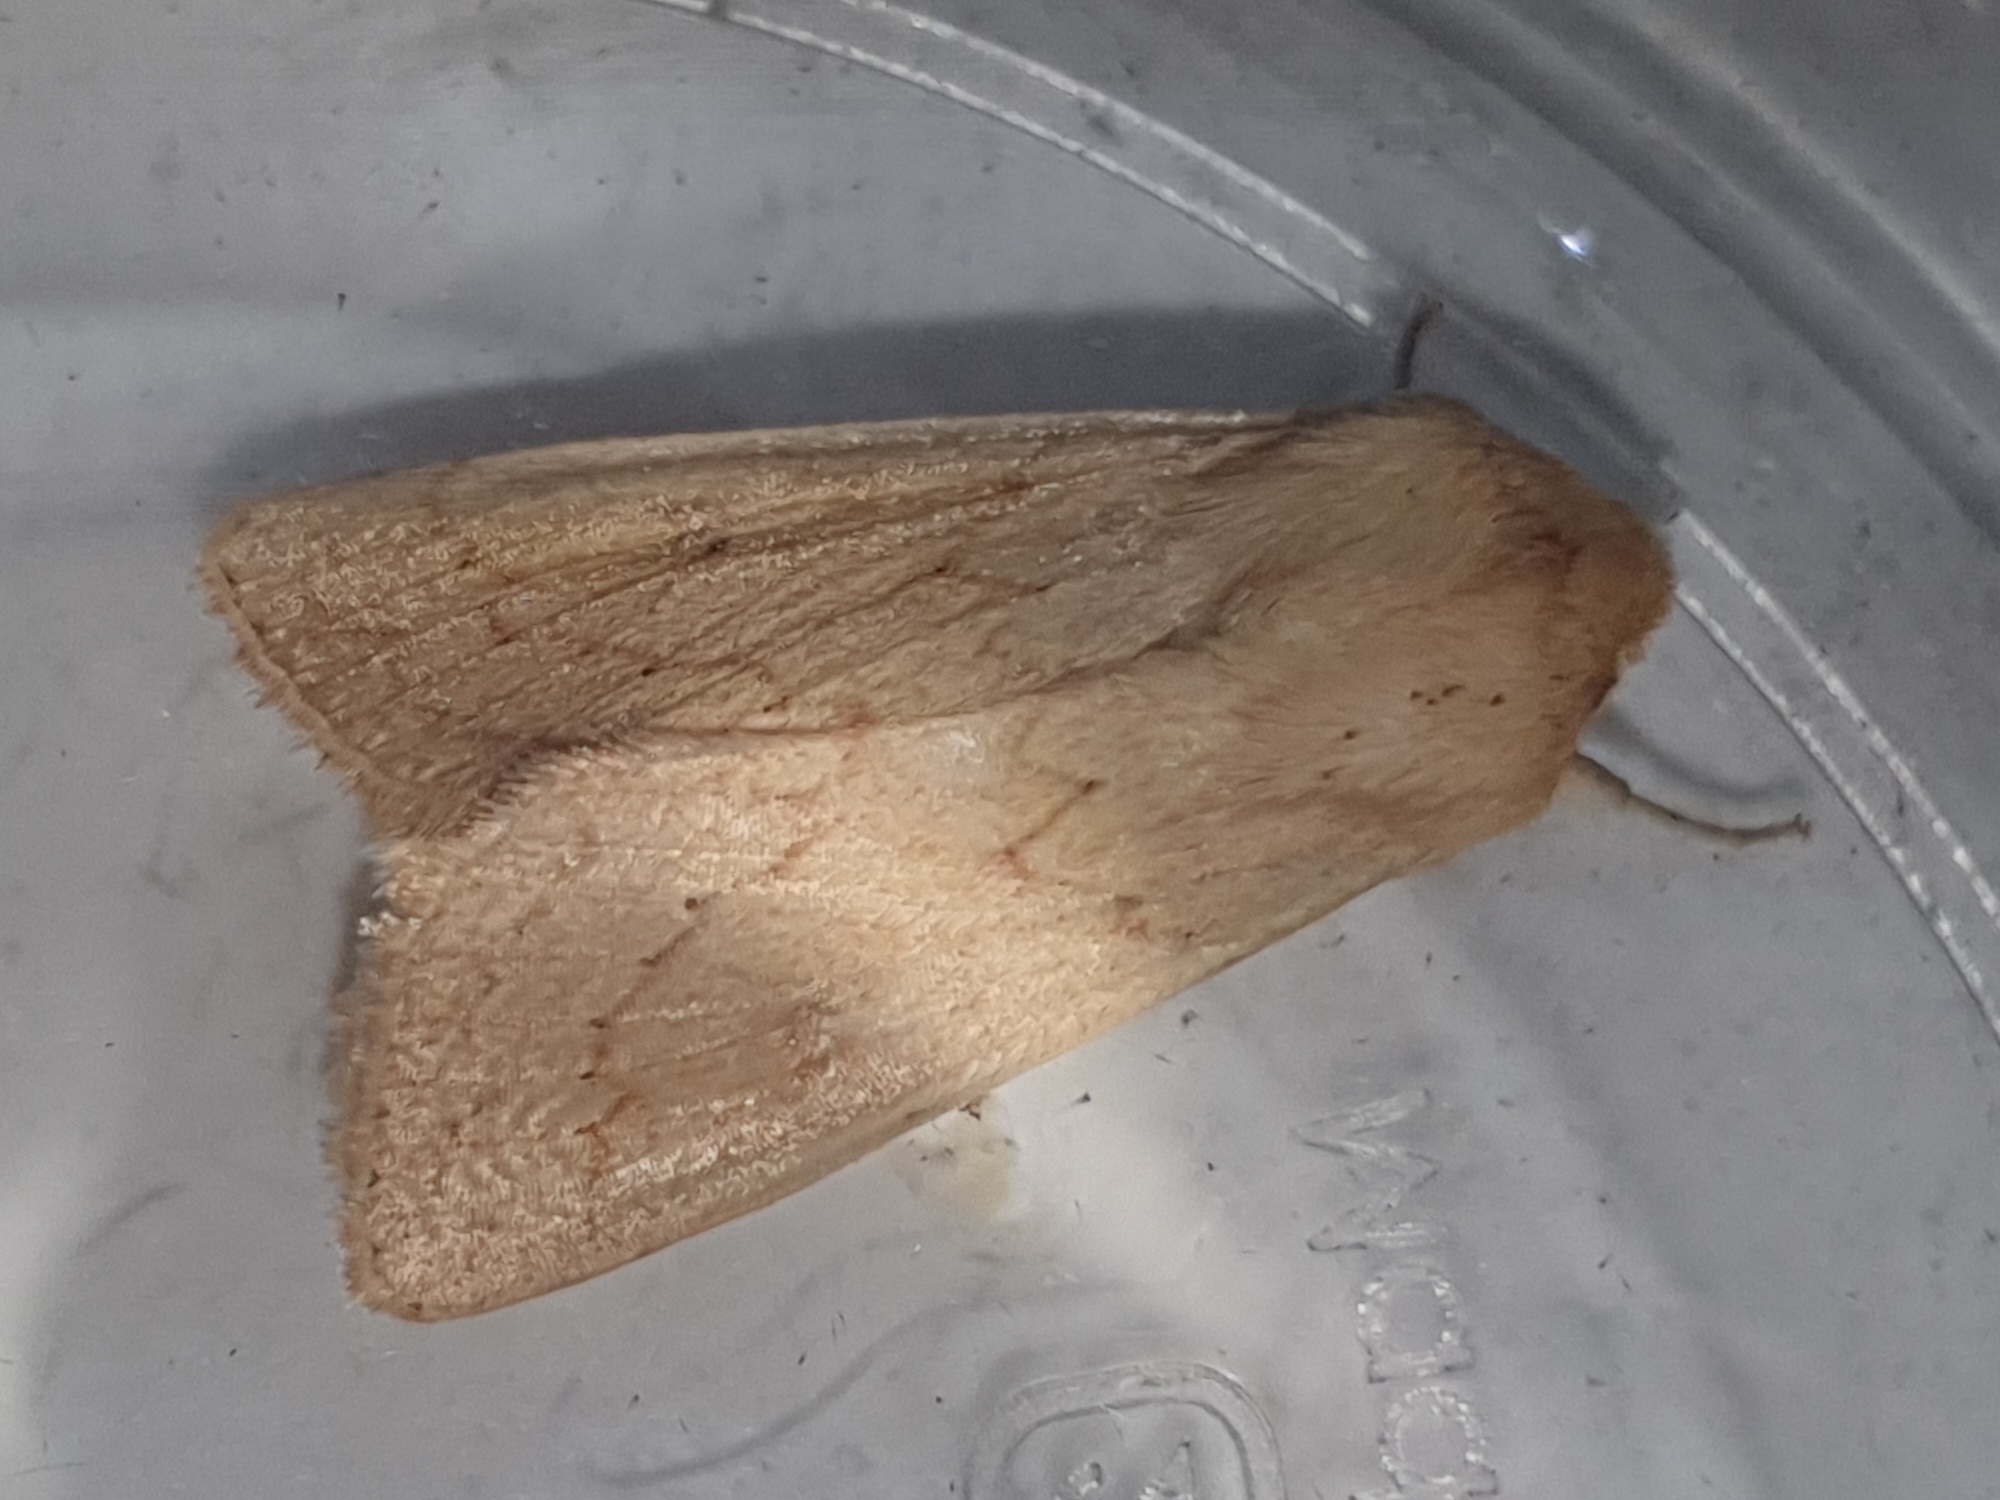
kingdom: Animalia
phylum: Arthropoda
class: Insecta
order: Lepidoptera
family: Noctuidae
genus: Mythimna
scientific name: Mythimna vitellina
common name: Delicate
